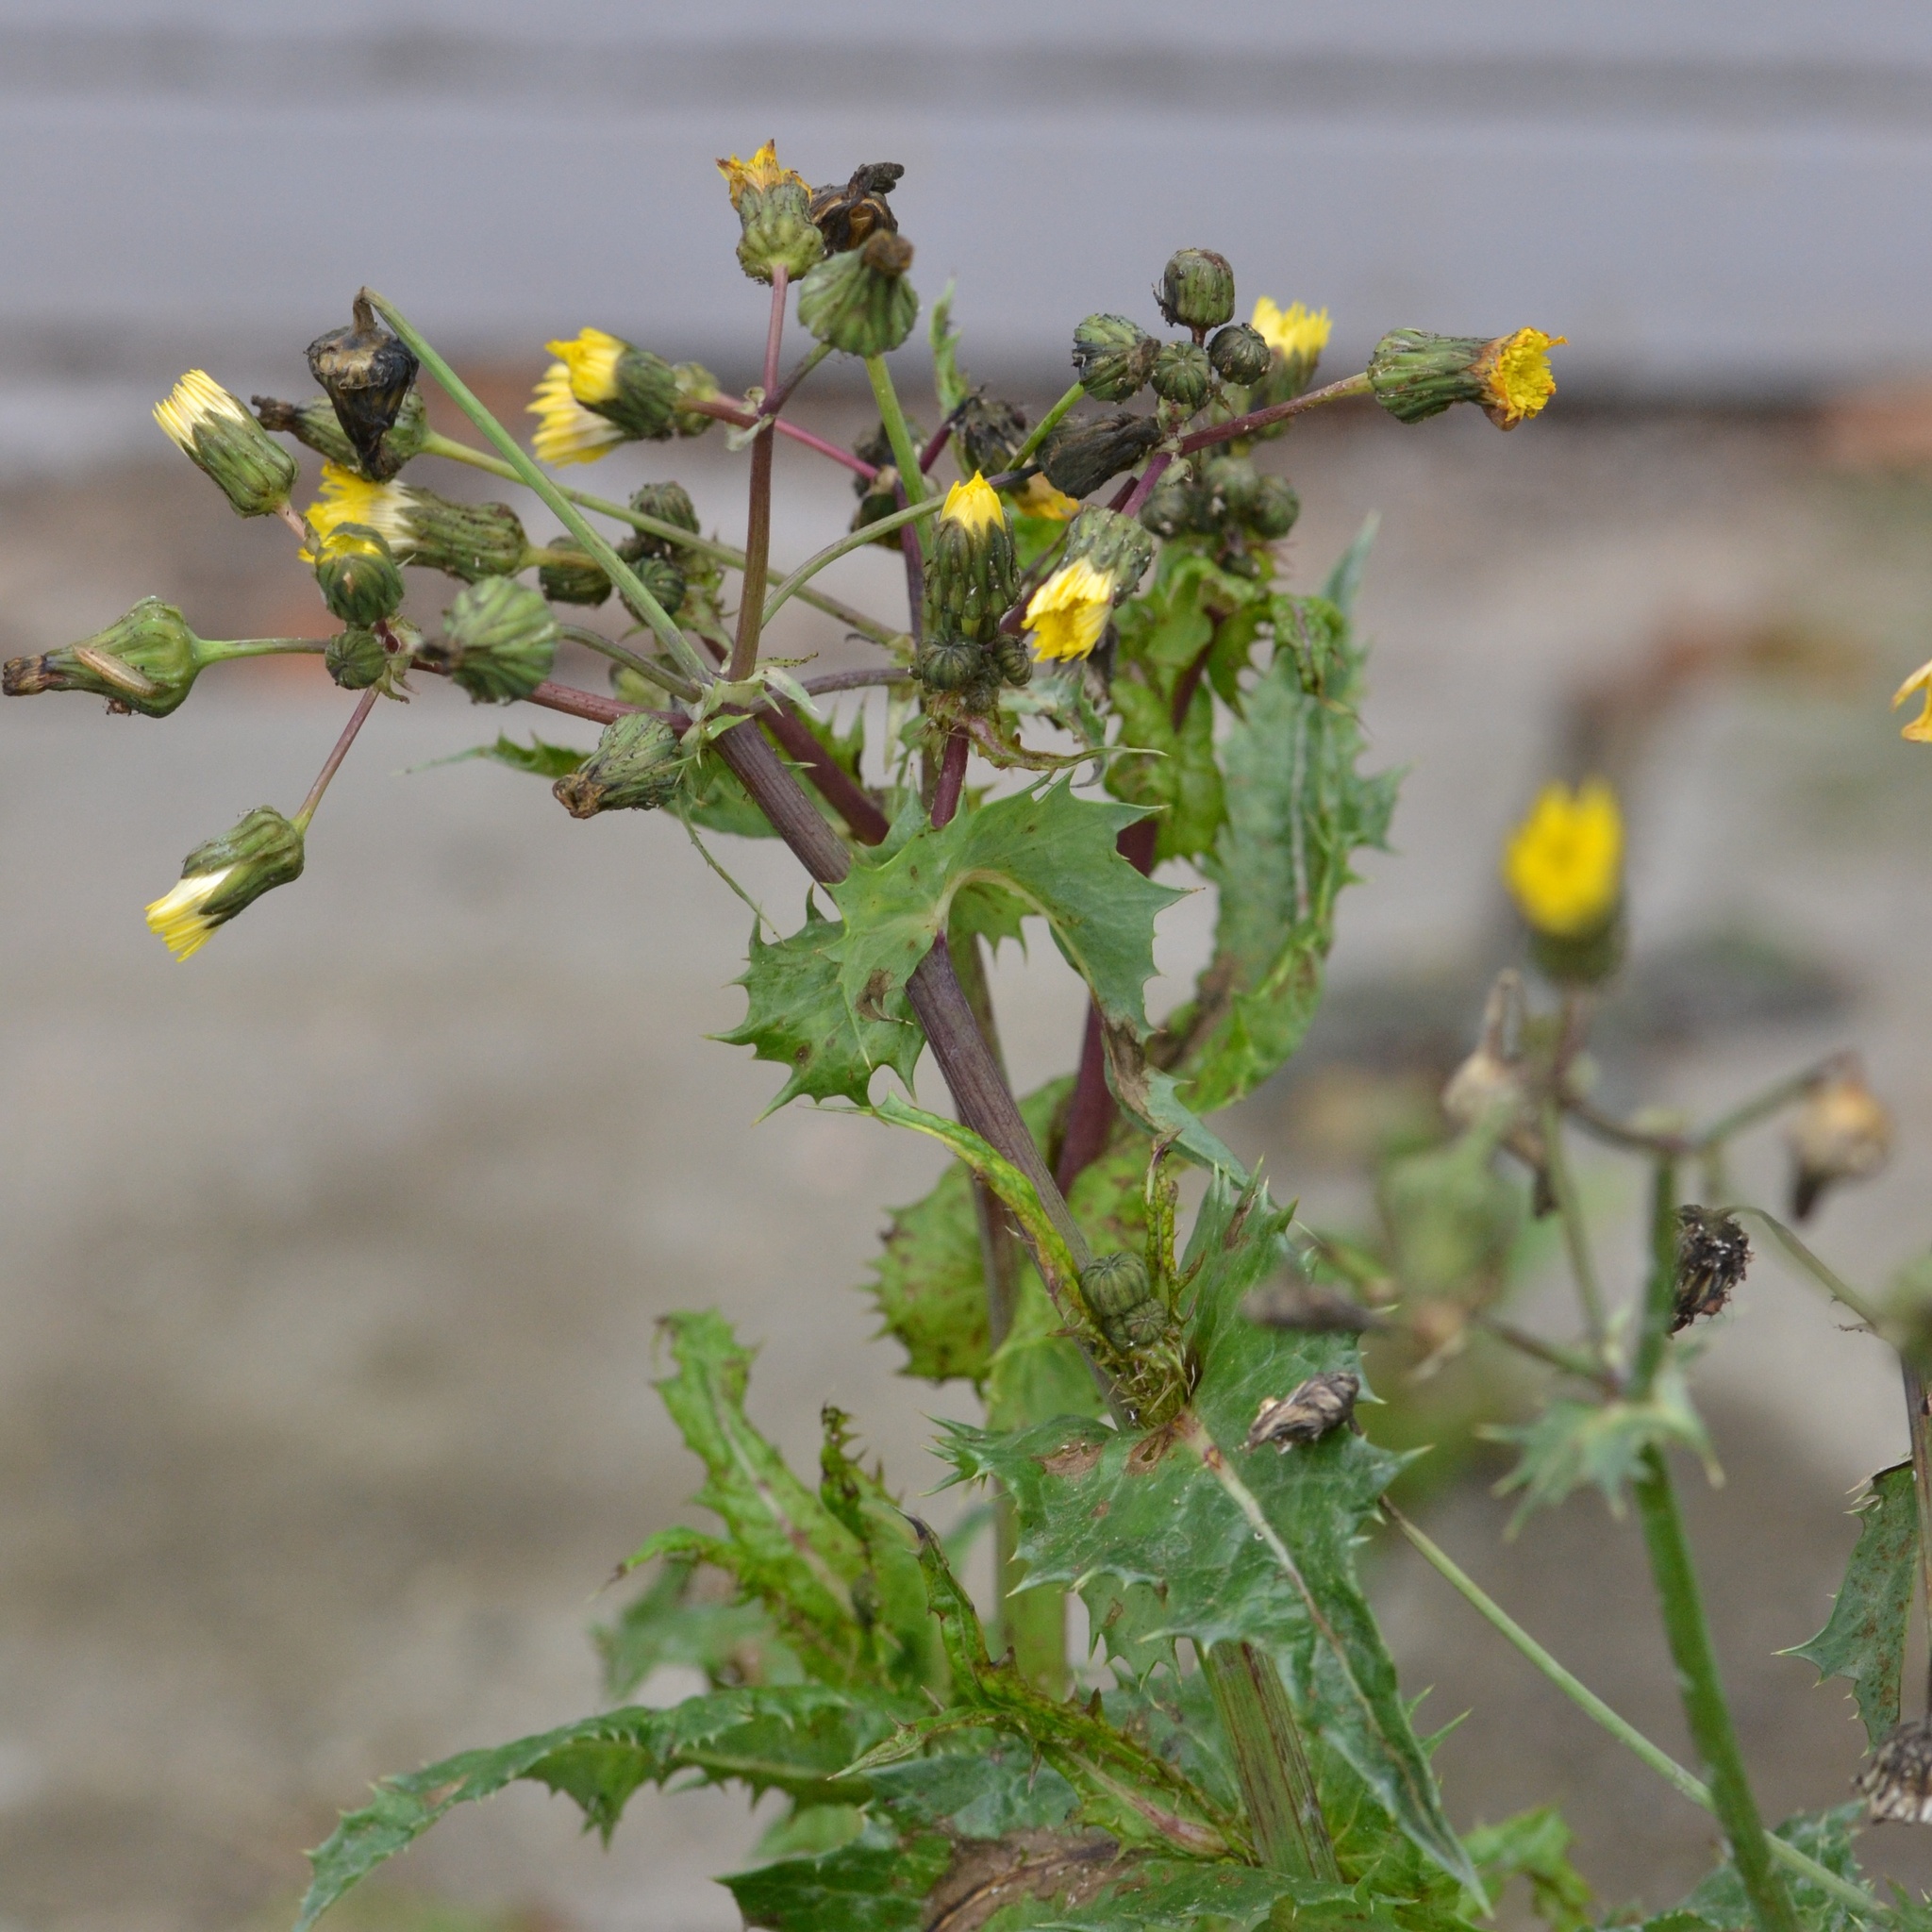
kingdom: Plantae
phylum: Tracheophyta
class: Magnoliopsida
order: Asterales
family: Asteraceae
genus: Sonchus
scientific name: Sonchus asper
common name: Prickly sow-thistle
